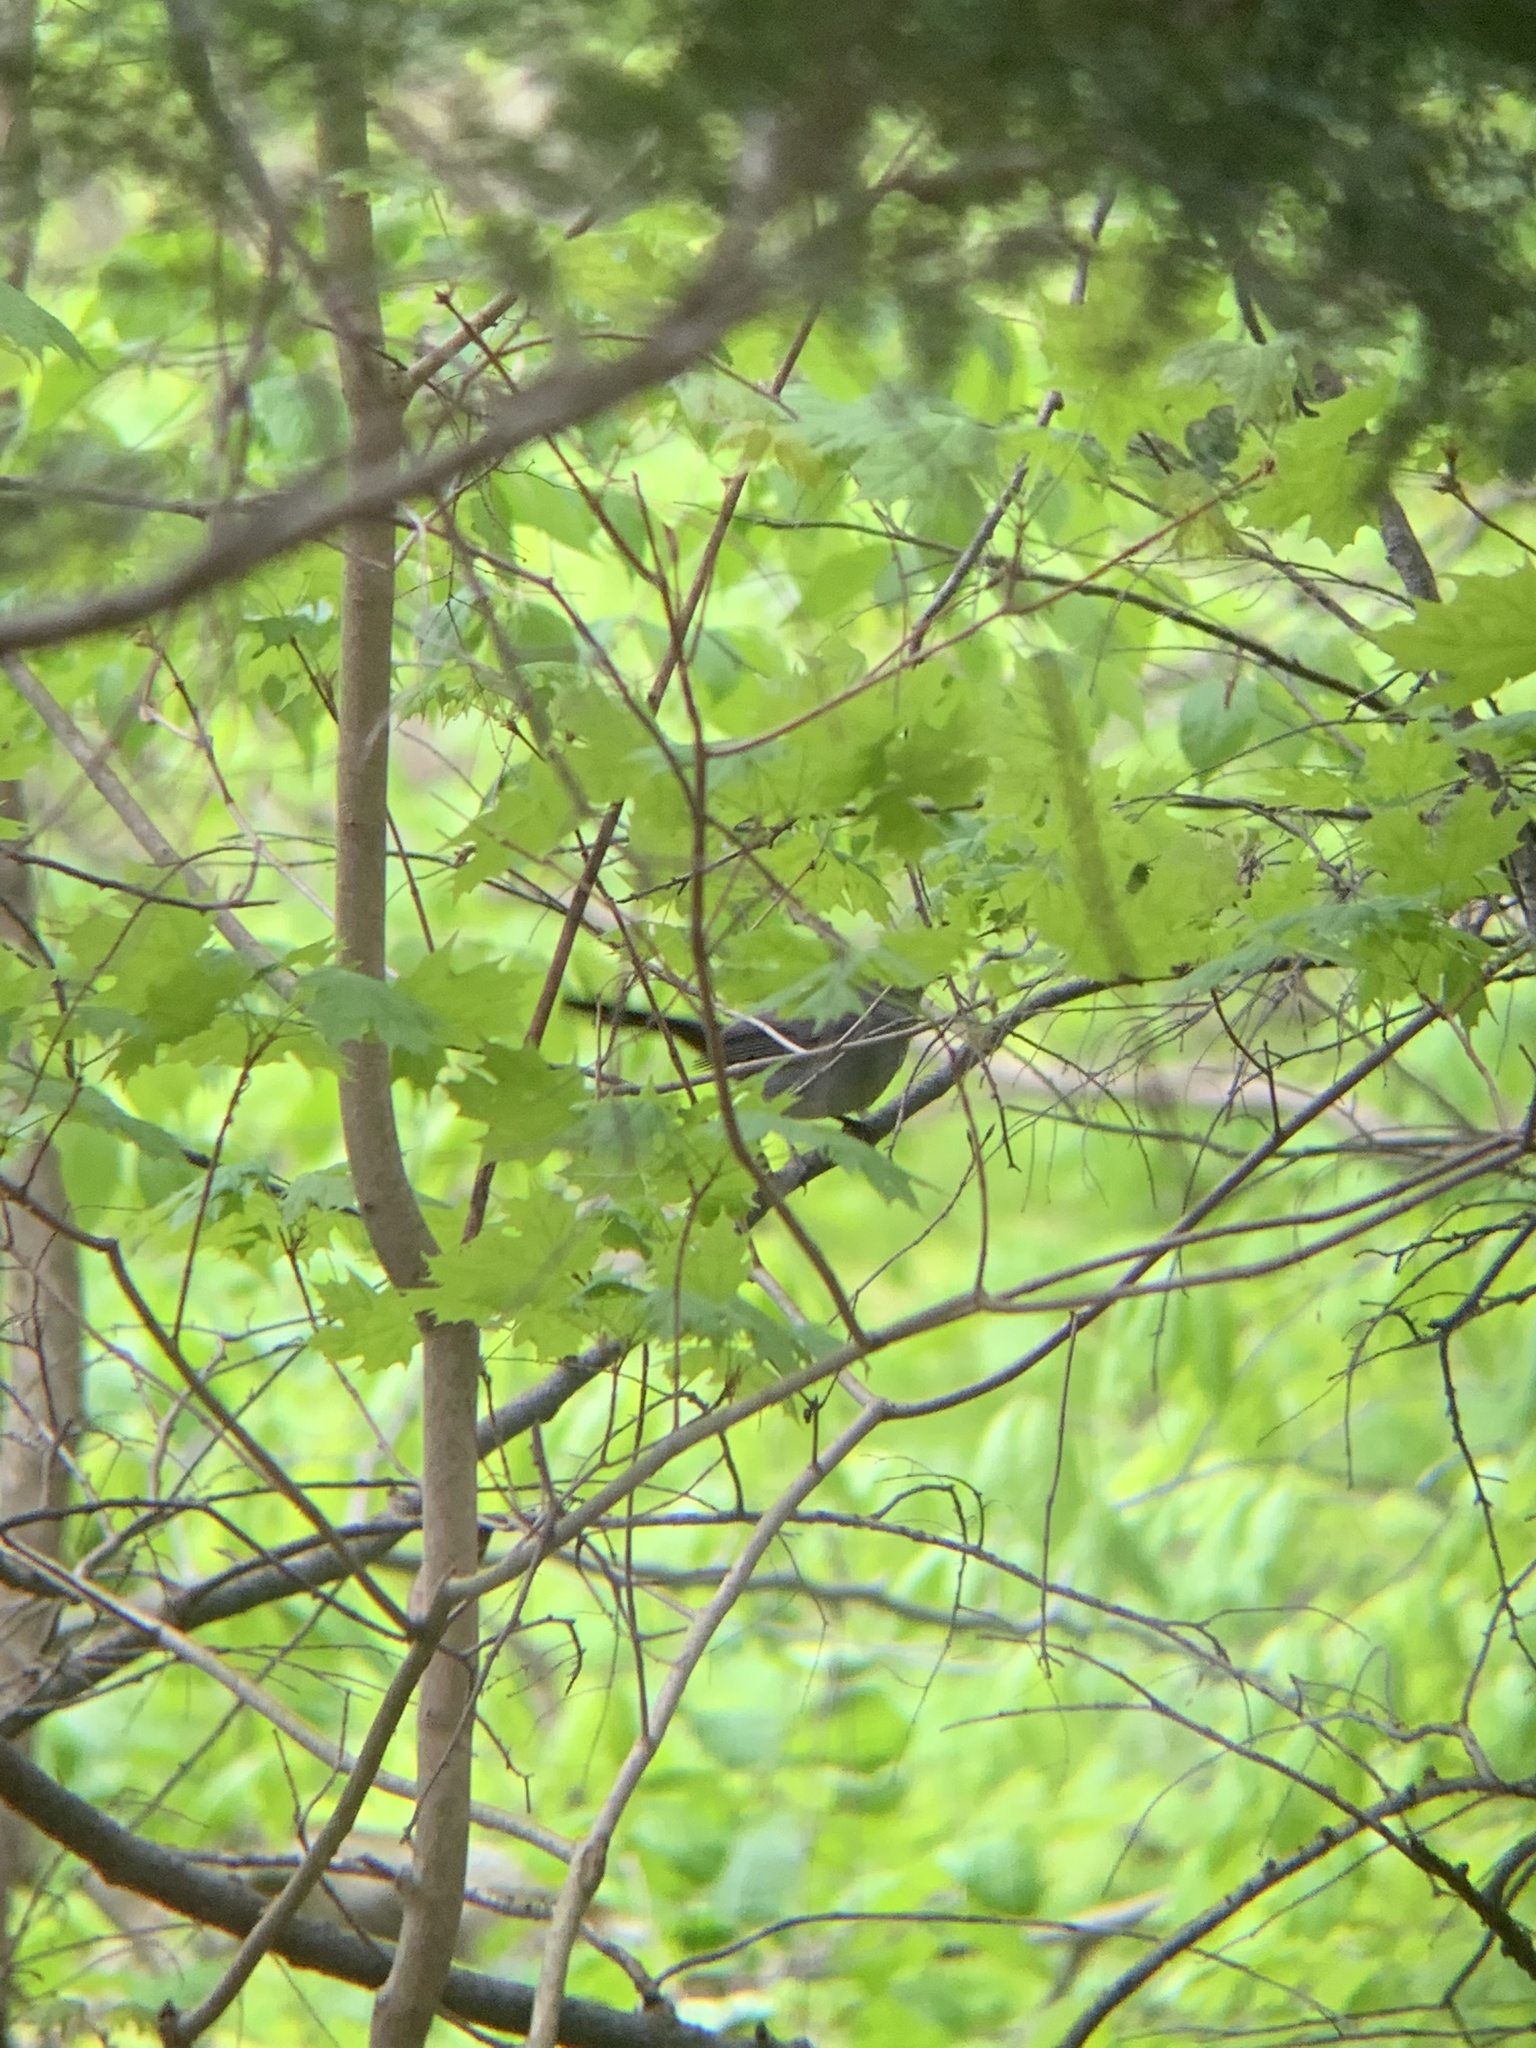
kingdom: Animalia
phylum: Chordata
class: Aves
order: Passeriformes
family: Mimidae
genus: Dumetella
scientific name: Dumetella carolinensis
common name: Gray catbird
